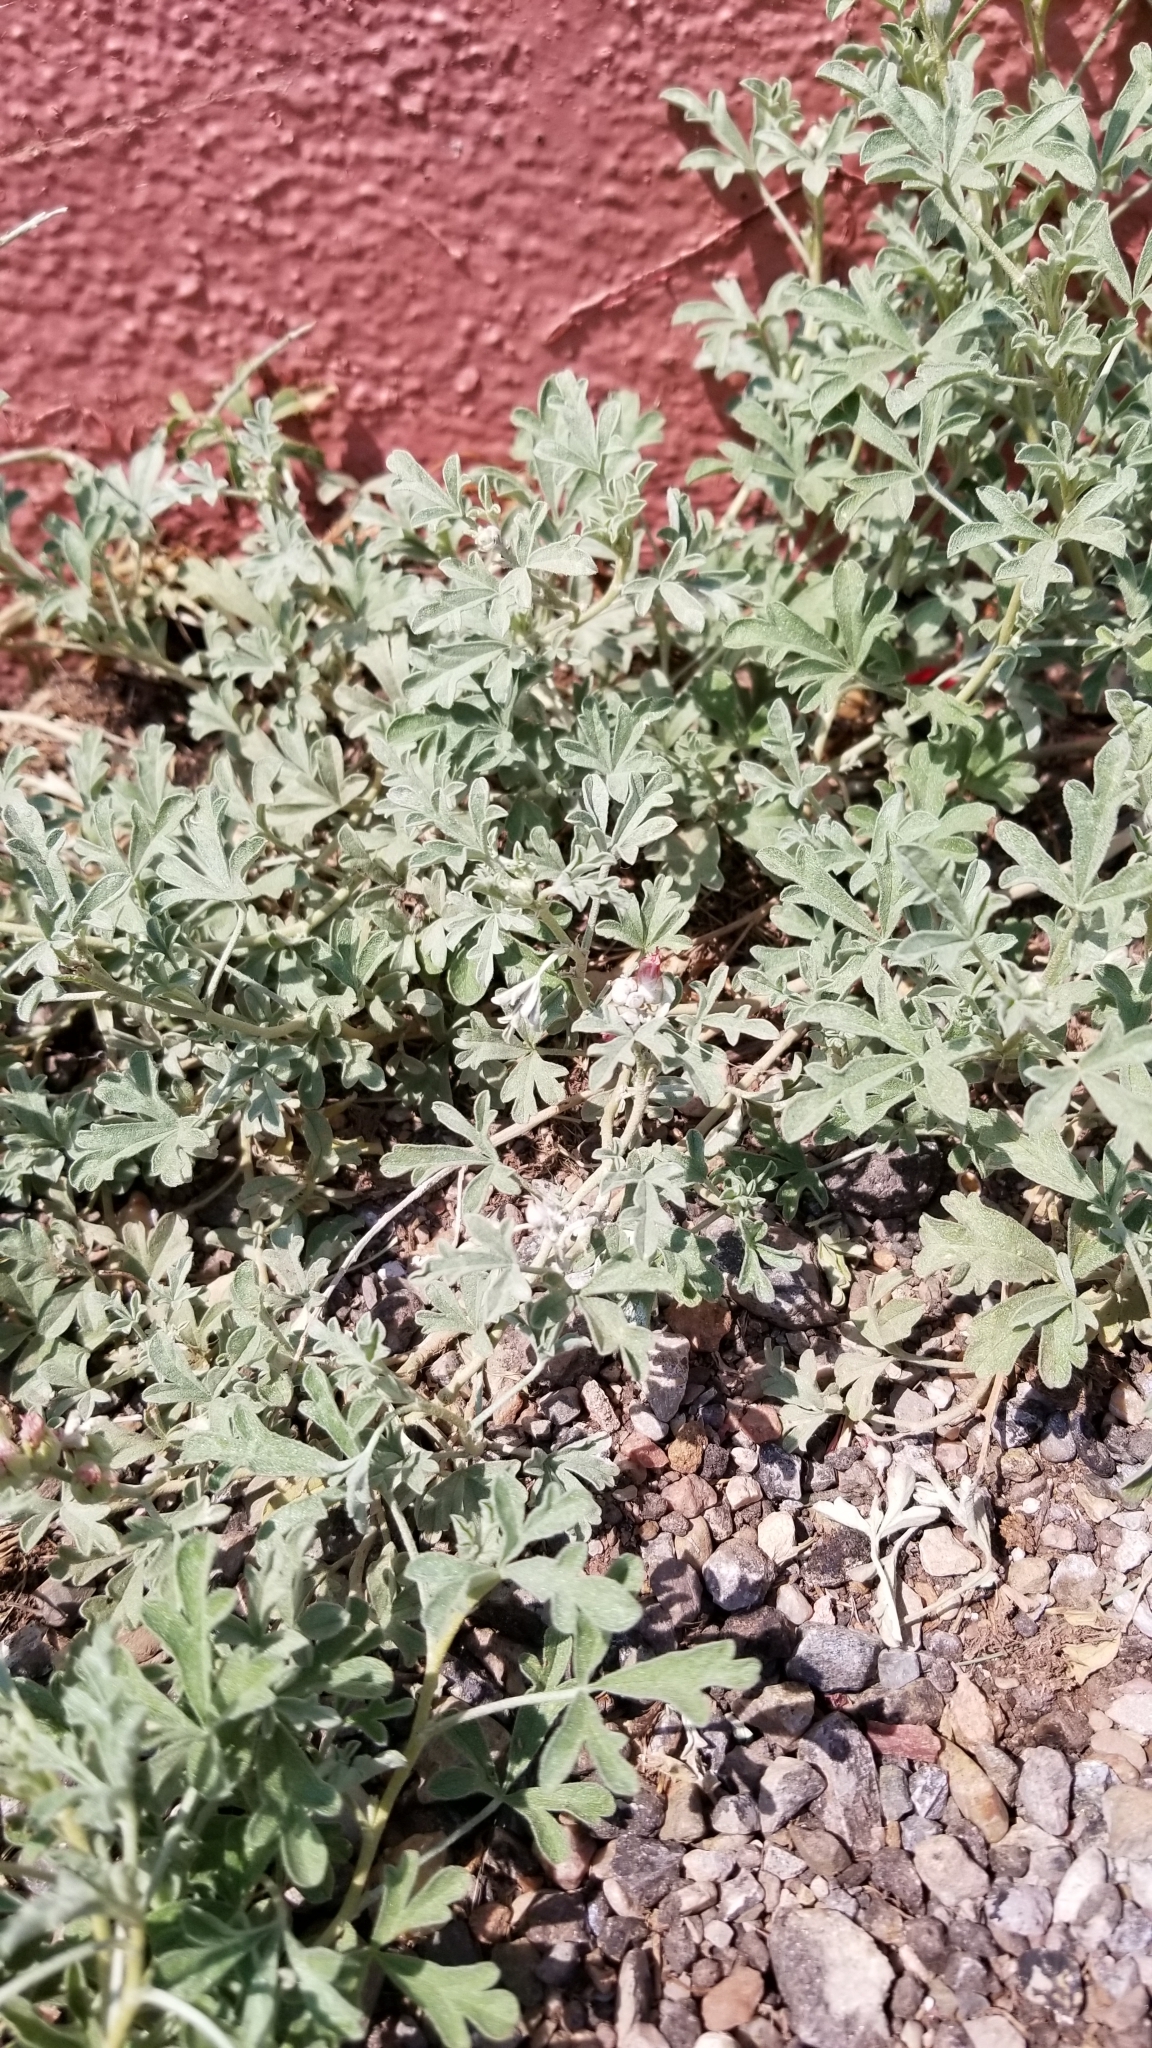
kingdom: Plantae
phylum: Tracheophyta
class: Magnoliopsida
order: Malvales
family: Malvaceae
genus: Sphaeralcea
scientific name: Sphaeralcea coccinea
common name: Moss-rose
